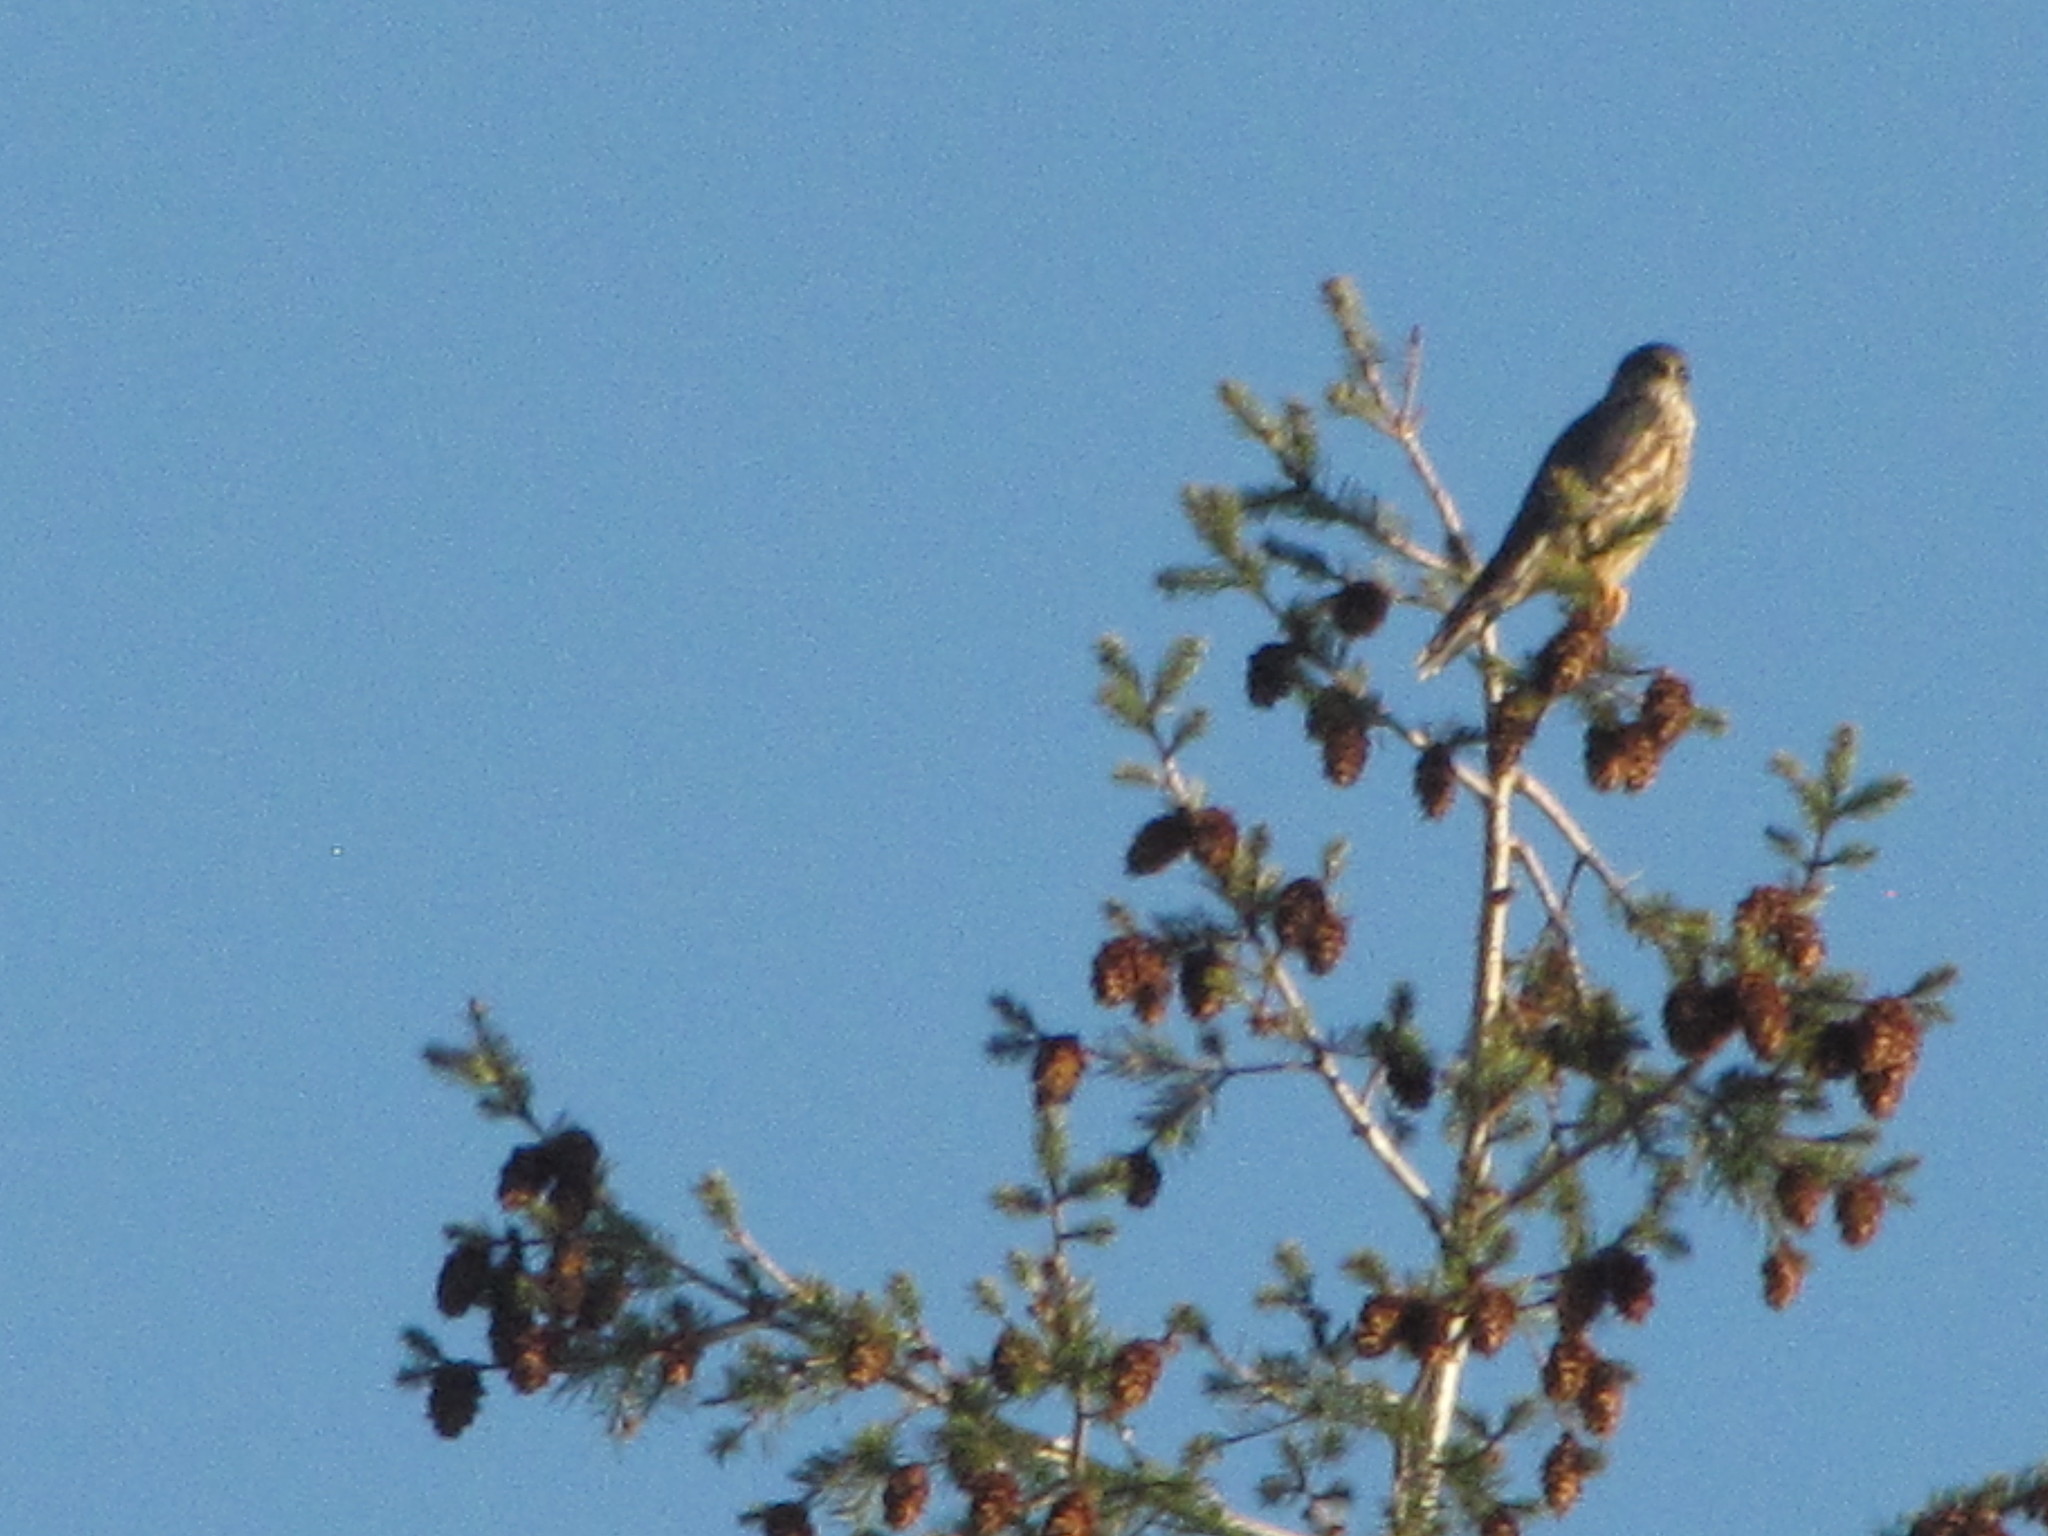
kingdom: Animalia
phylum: Chordata
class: Aves
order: Falconiformes
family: Falconidae
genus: Falco
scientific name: Falco columbarius
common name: Merlin
